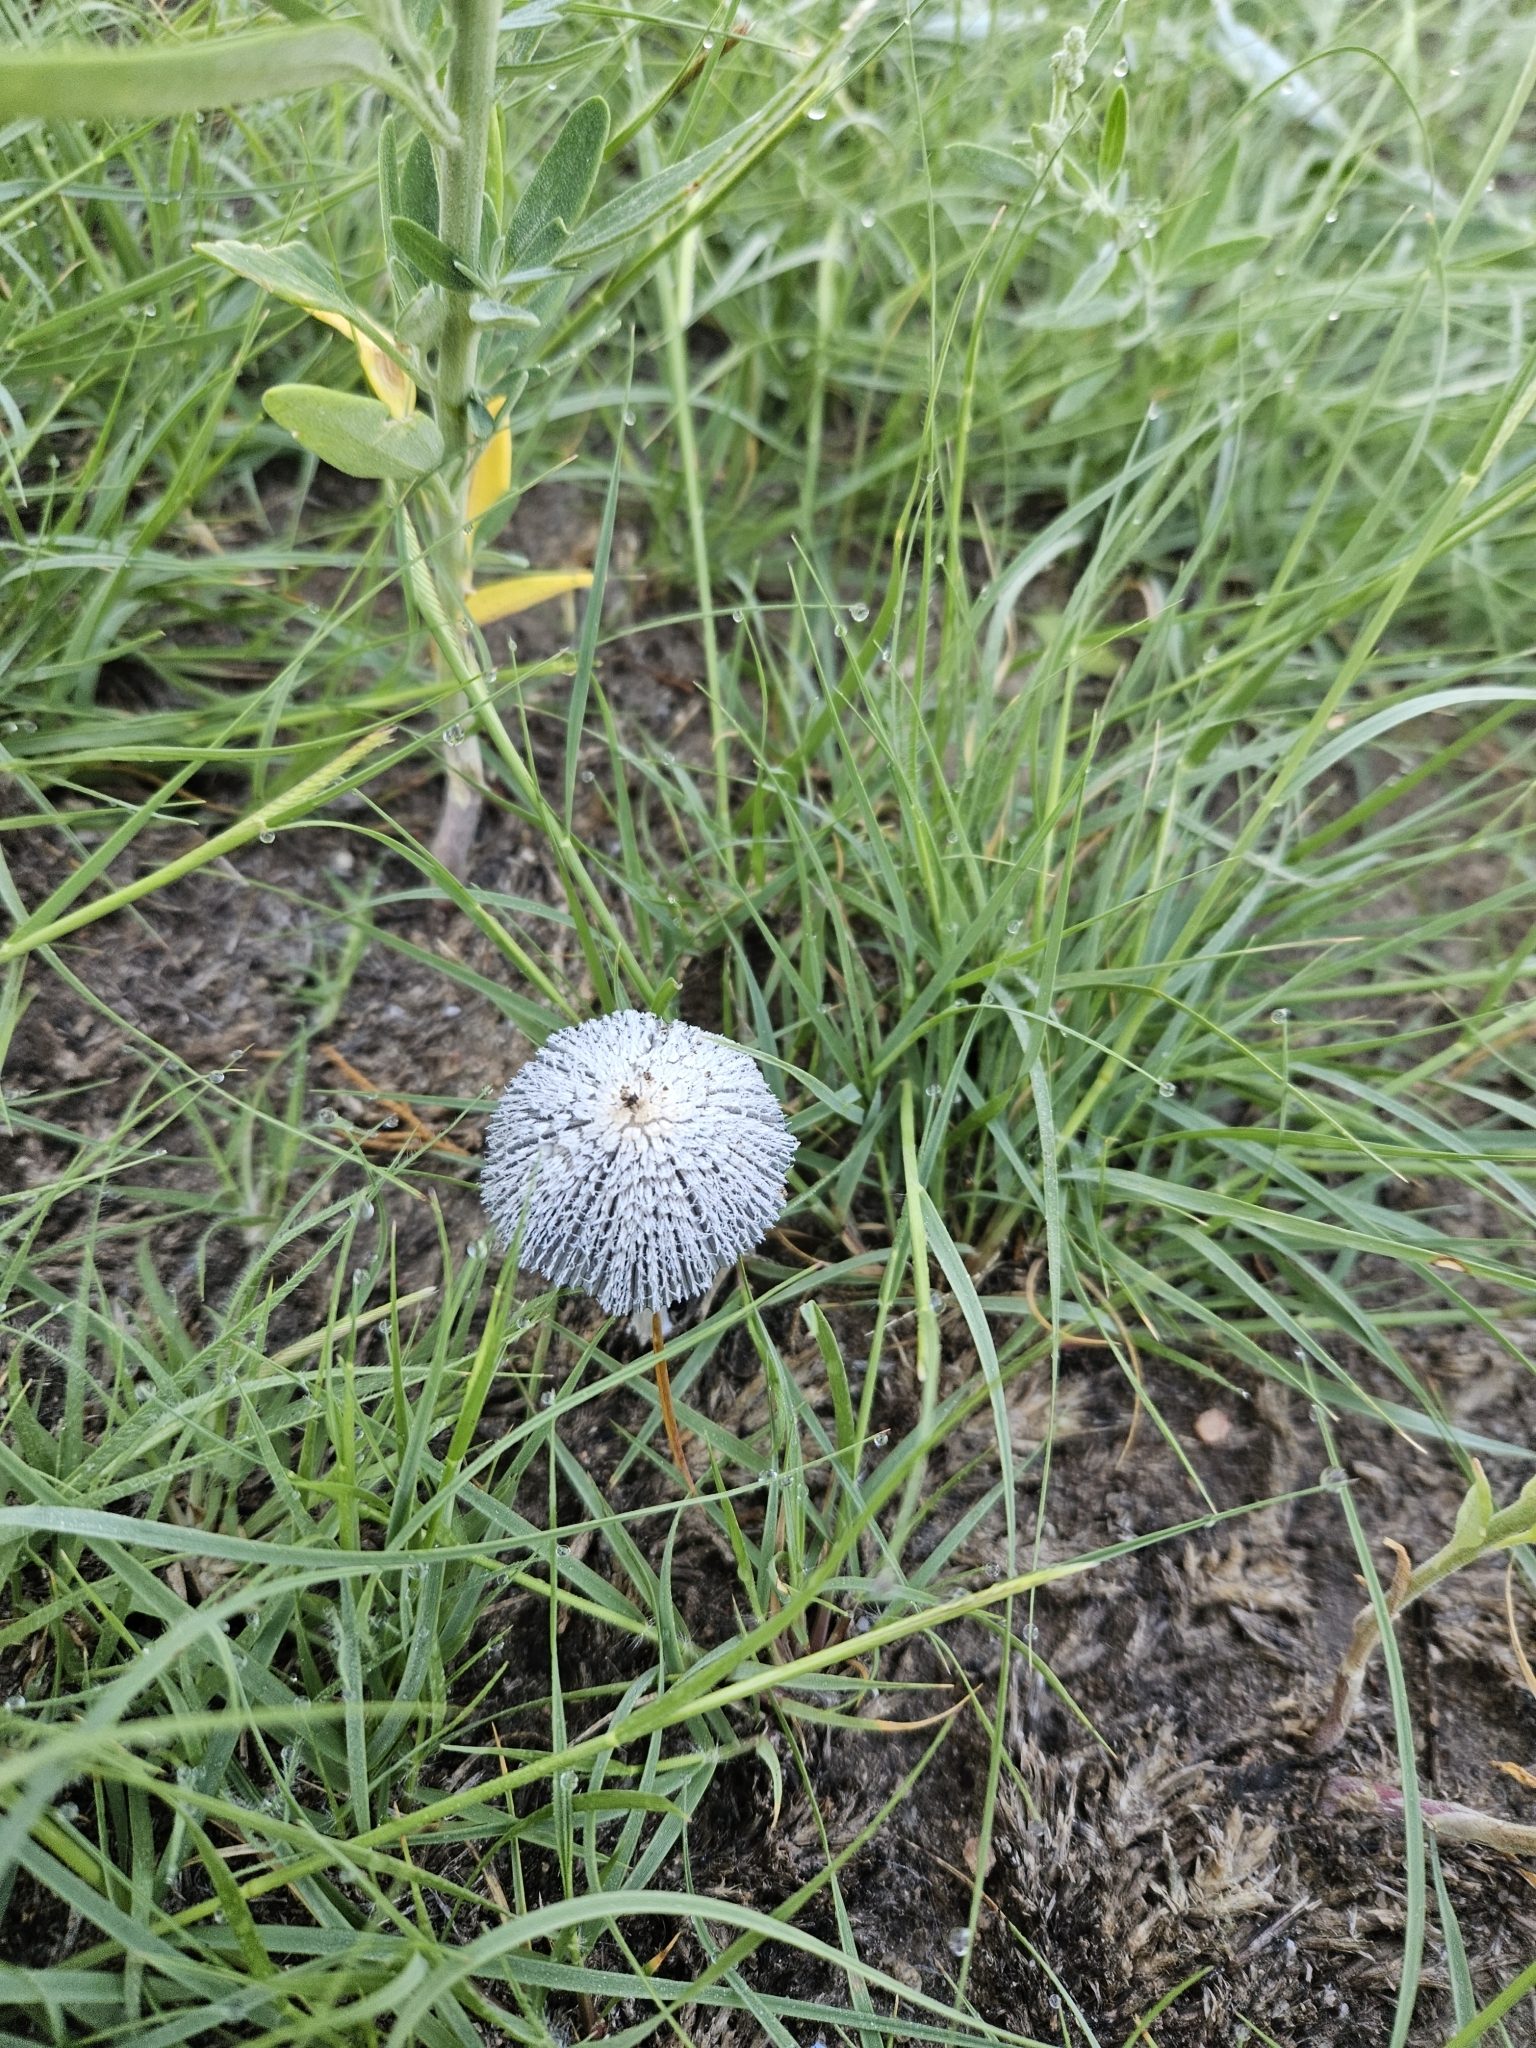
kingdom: Fungi
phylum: Basidiomycota
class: Agaricomycetes
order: Agaricales
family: Psathyrellaceae
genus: Parasola
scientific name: Parasola plicatilis
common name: Pleated inkcap
